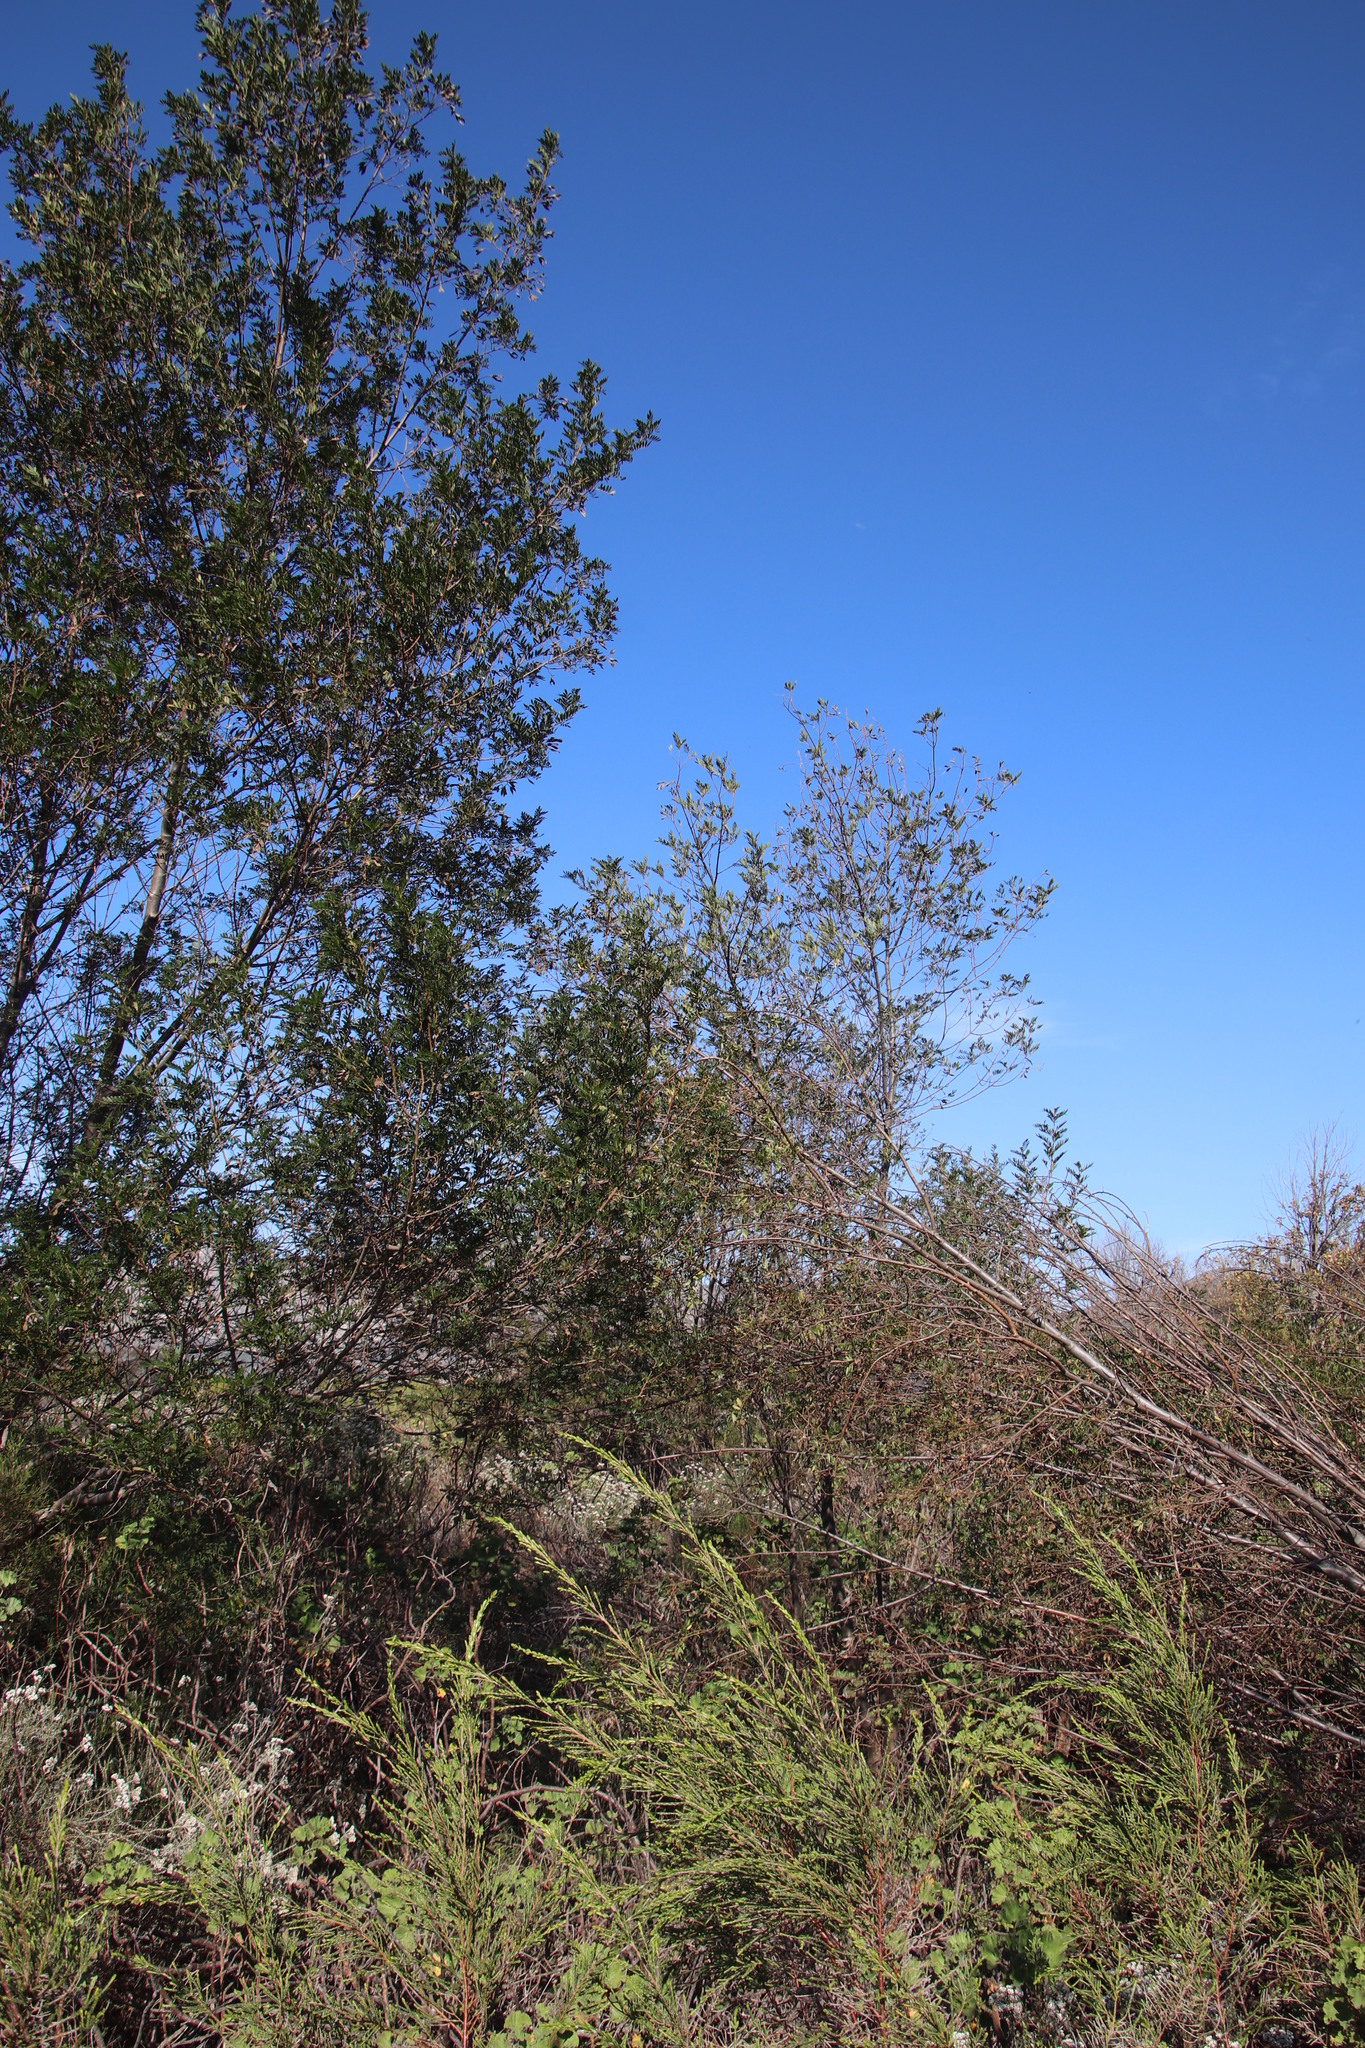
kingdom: Plantae
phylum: Tracheophyta
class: Magnoliopsida
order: Fabales
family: Fabaceae
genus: Virgilia
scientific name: Virgilia oroboides
